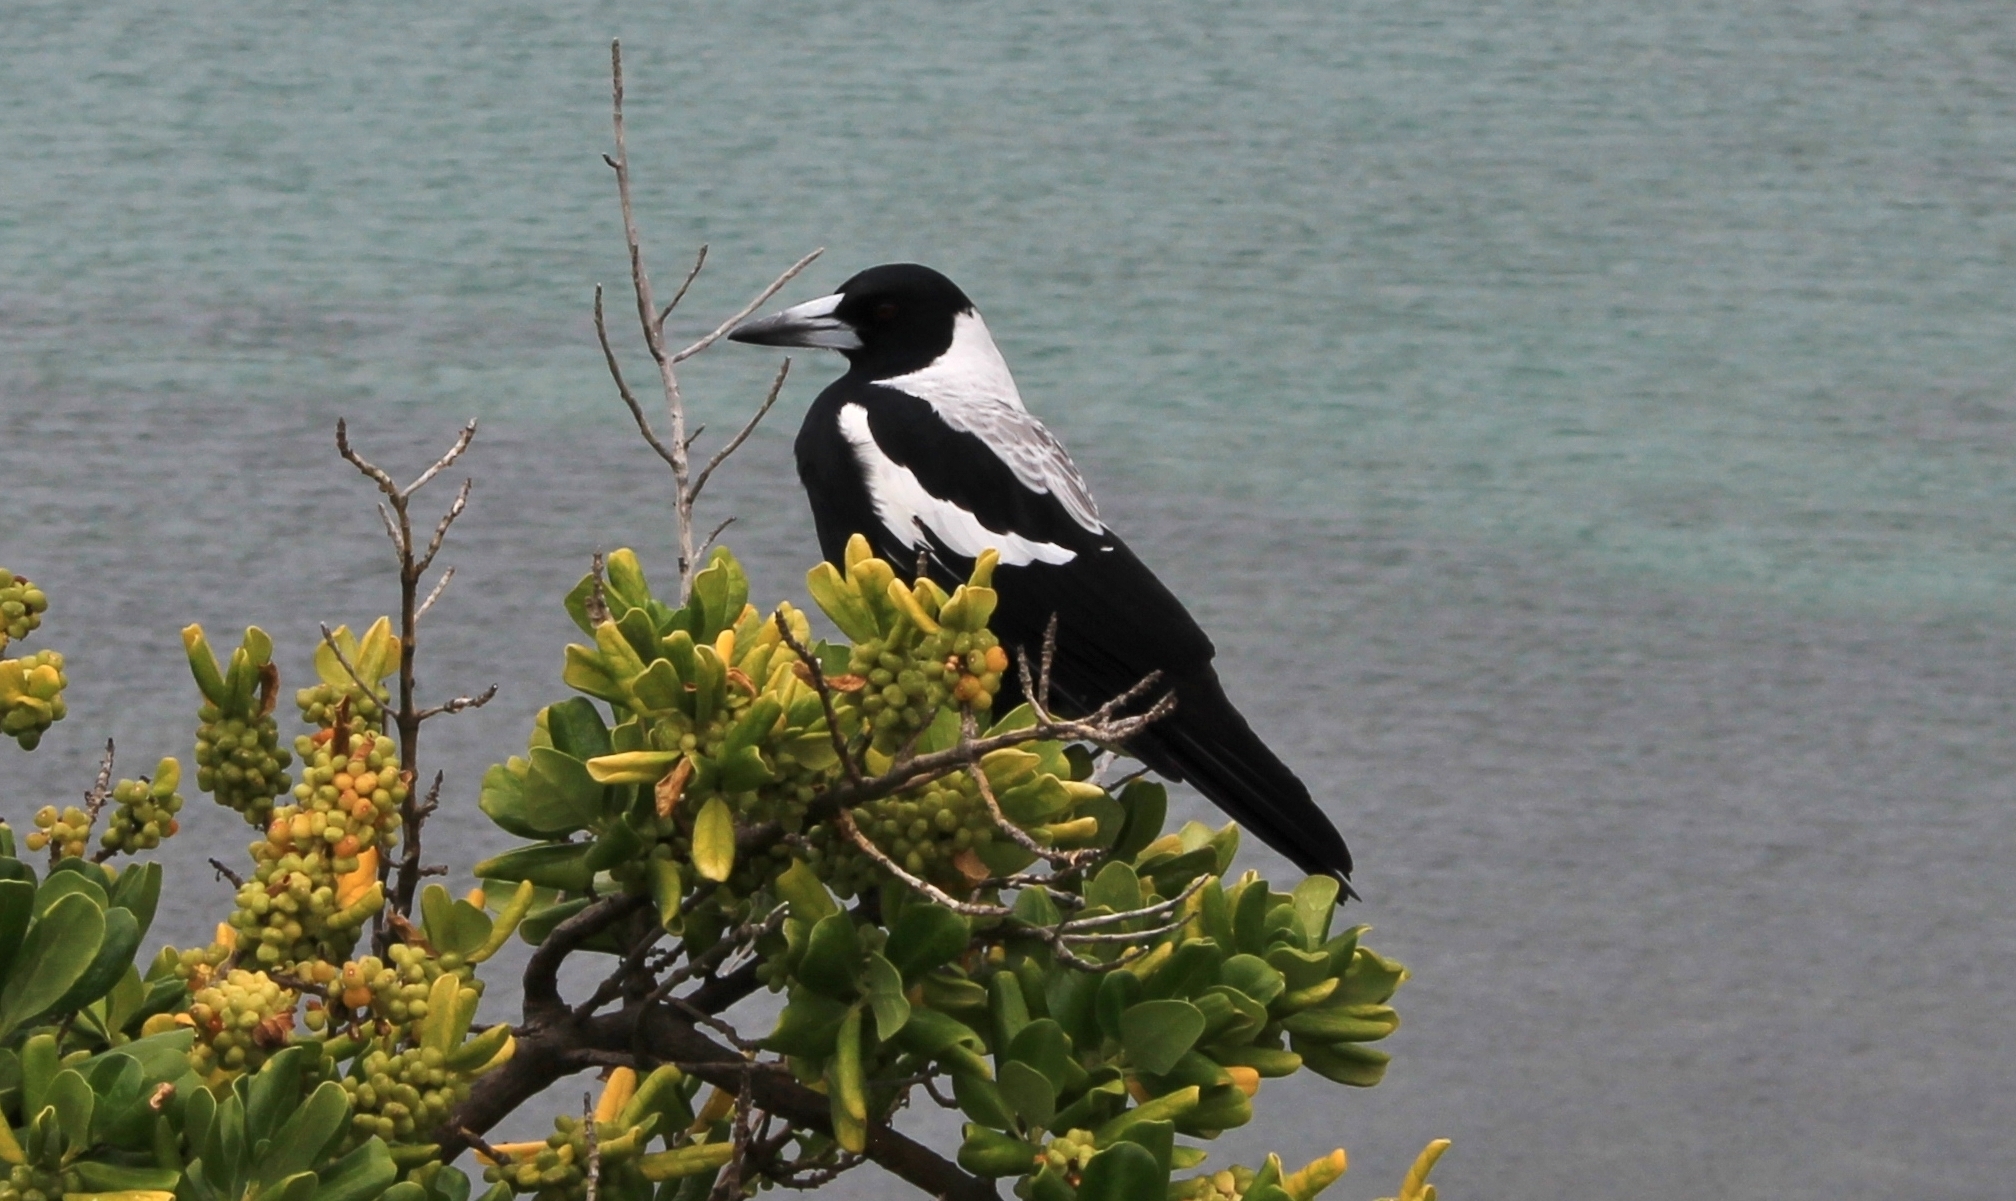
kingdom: Animalia
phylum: Chordata
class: Aves
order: Passeriformes
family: Cracticidae
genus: Gymnorhina
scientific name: Gymnorhina tibicen
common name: Australian magpie
